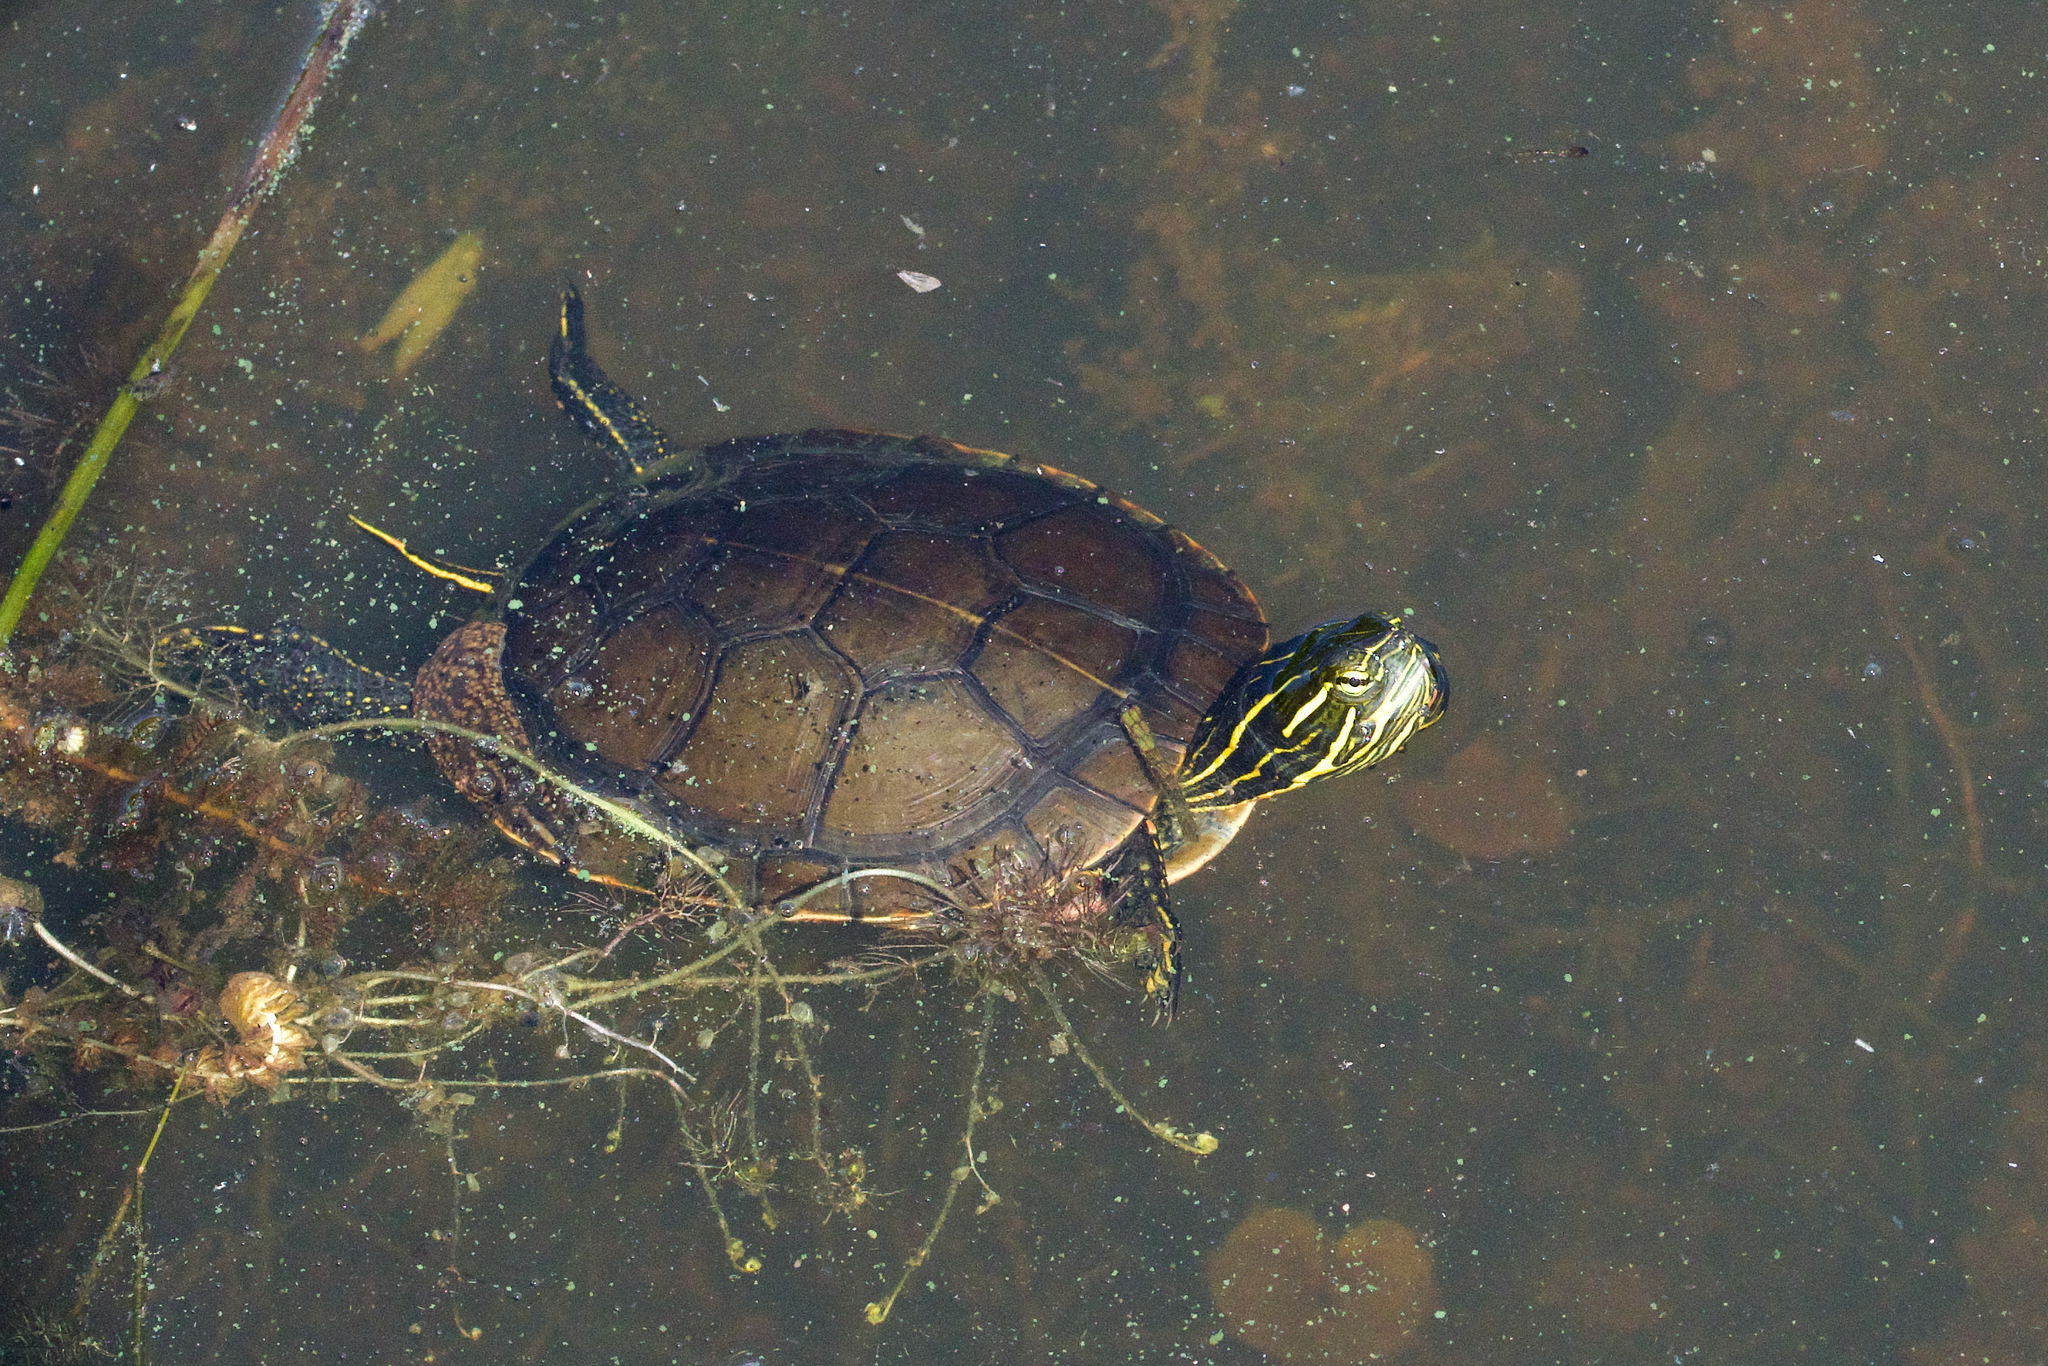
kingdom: Animalia
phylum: Chordata
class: Testudines
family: Emydidae
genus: Chrysemys
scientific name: Chrysemys picta
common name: Painted turtle
